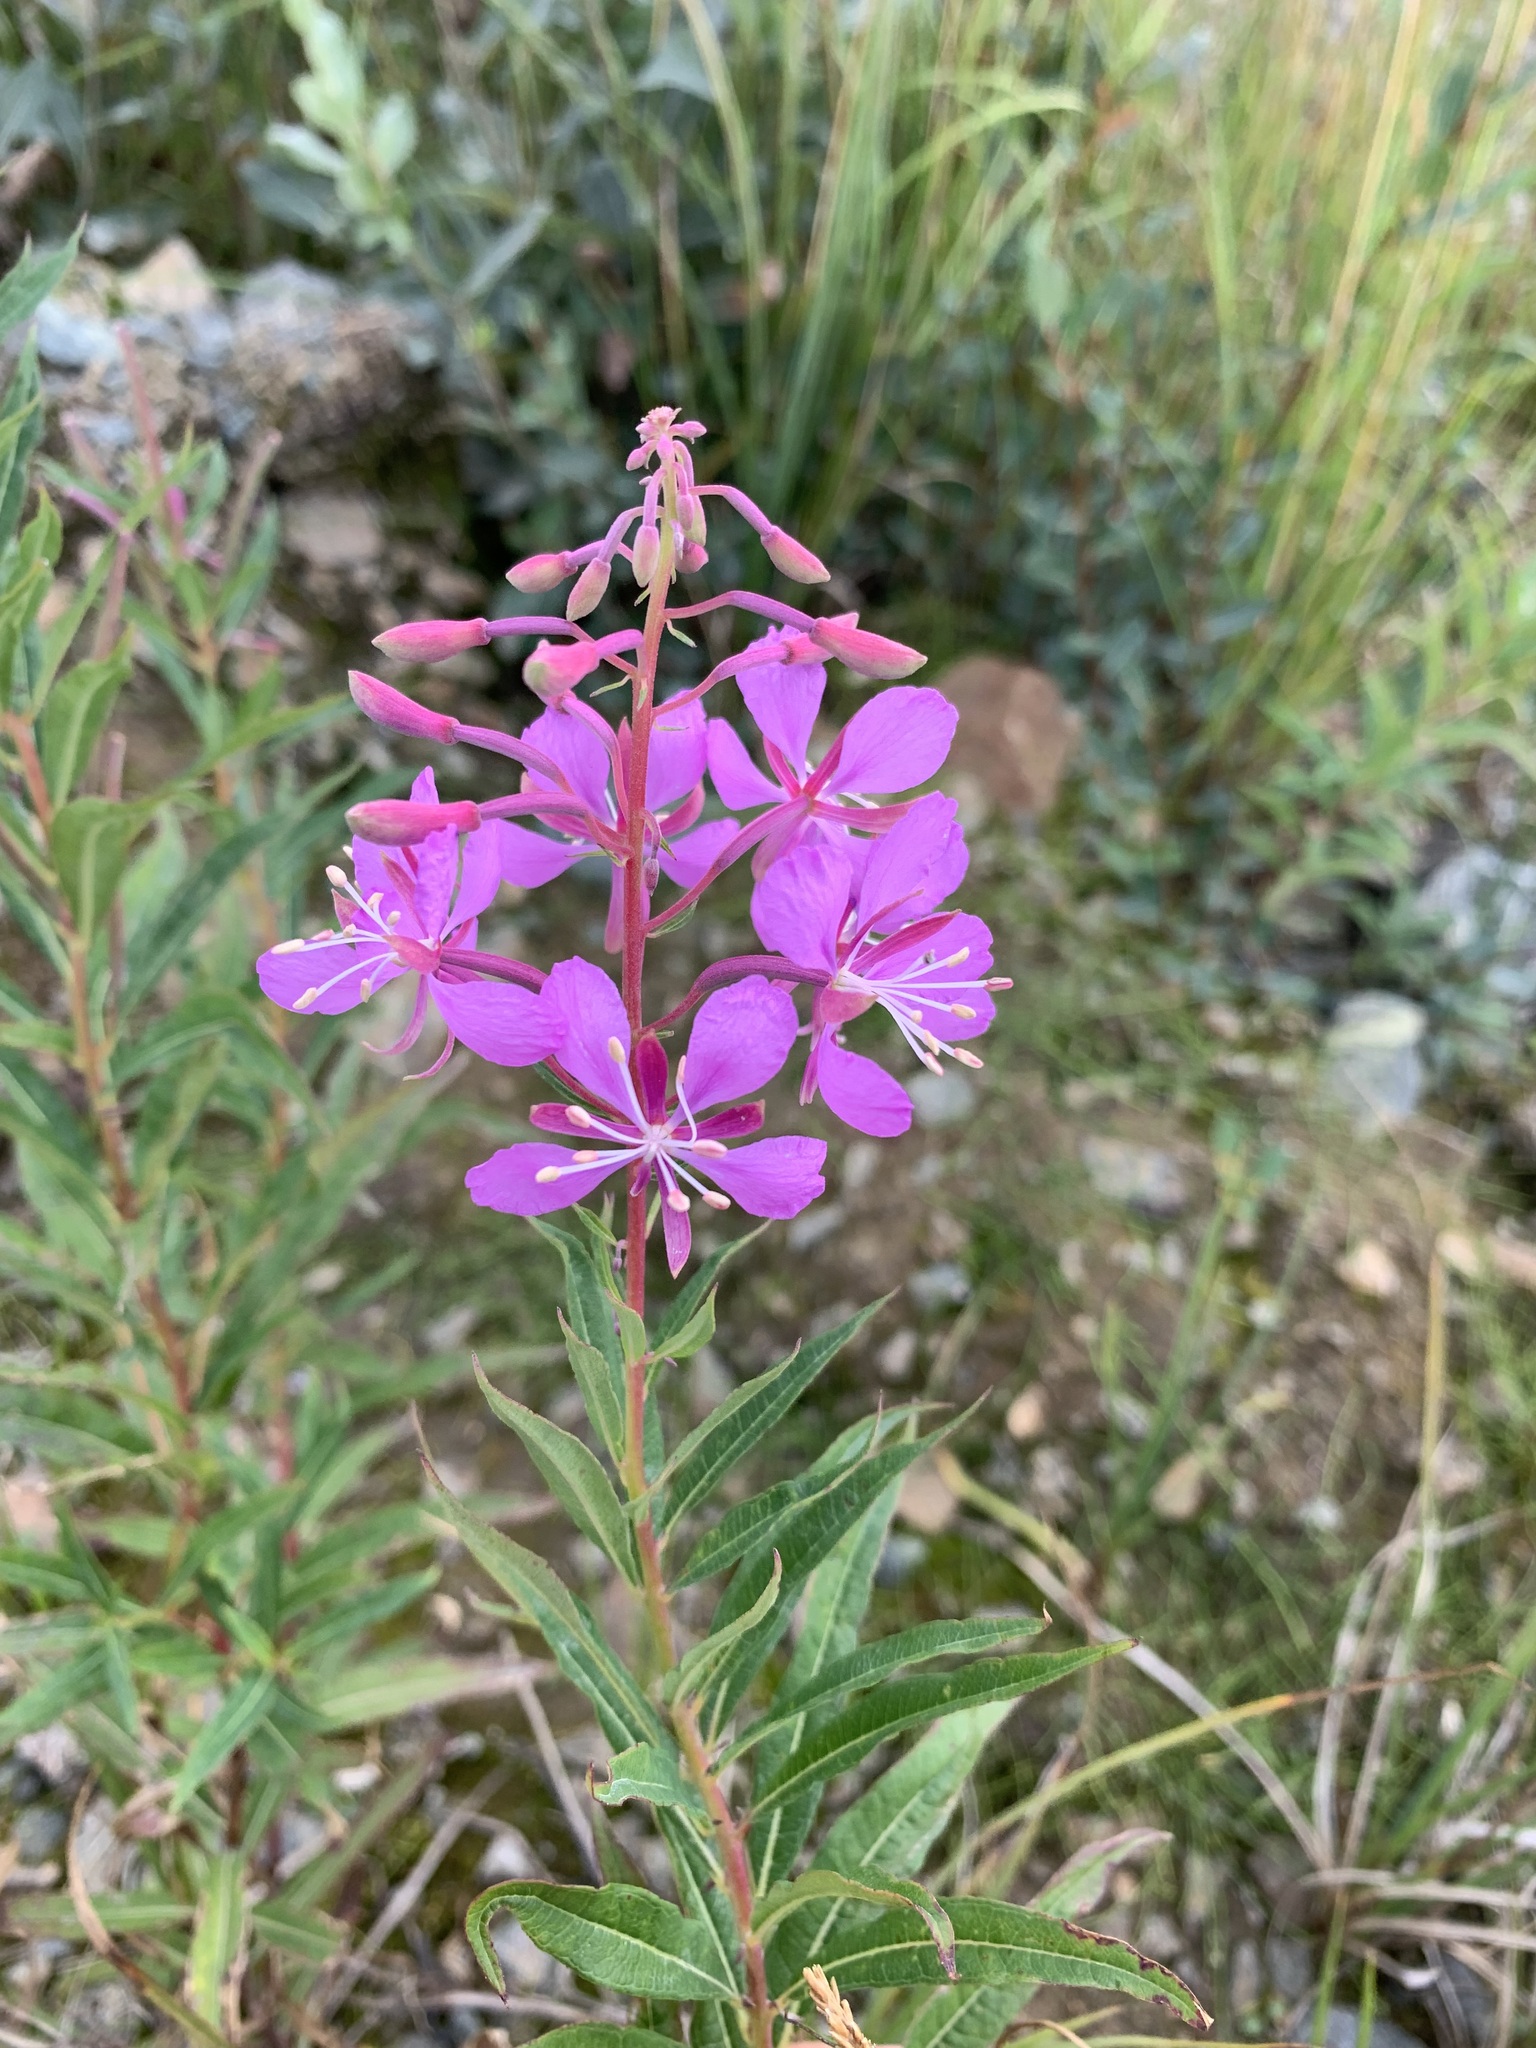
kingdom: Plantae
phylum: Tracheophyta
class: Magnoliopsida
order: Myrtales
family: Onagraceae
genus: Chamaenerion
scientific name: Chamaenerion angustifolium
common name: Fireweed
